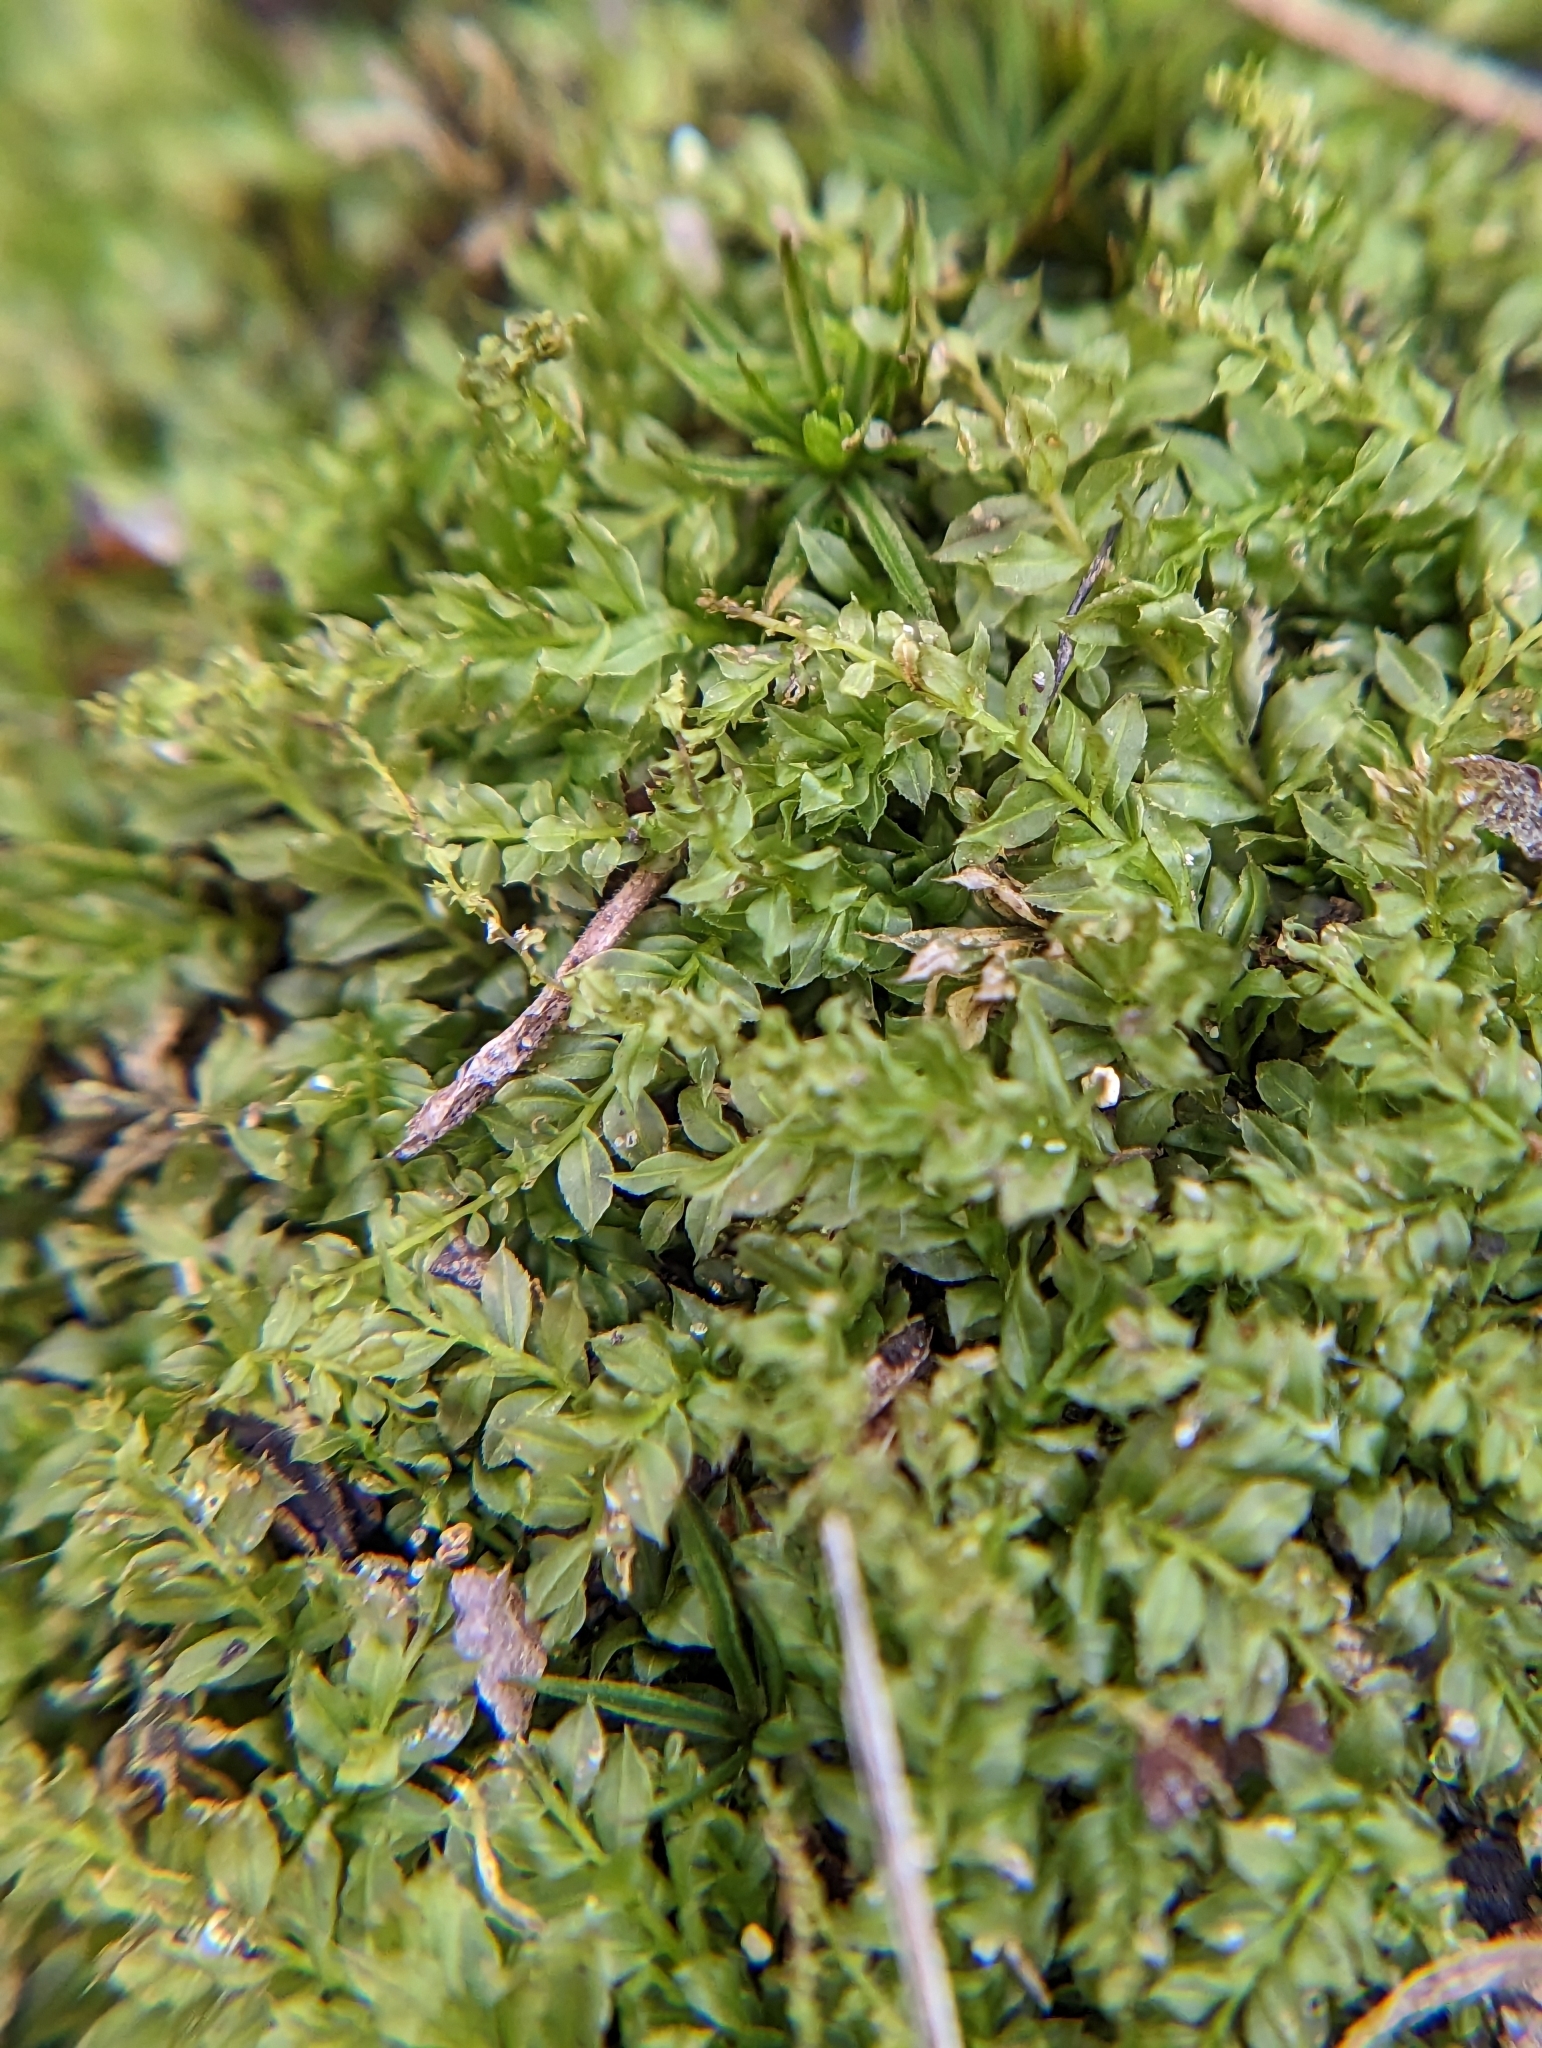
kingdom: Plantae
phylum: Bryophyta
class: Bryopsida
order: Bryales
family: Mniaceae
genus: Plagiomnium
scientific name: Plagiomnium cuspidatum
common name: Woodsy leafy moss
